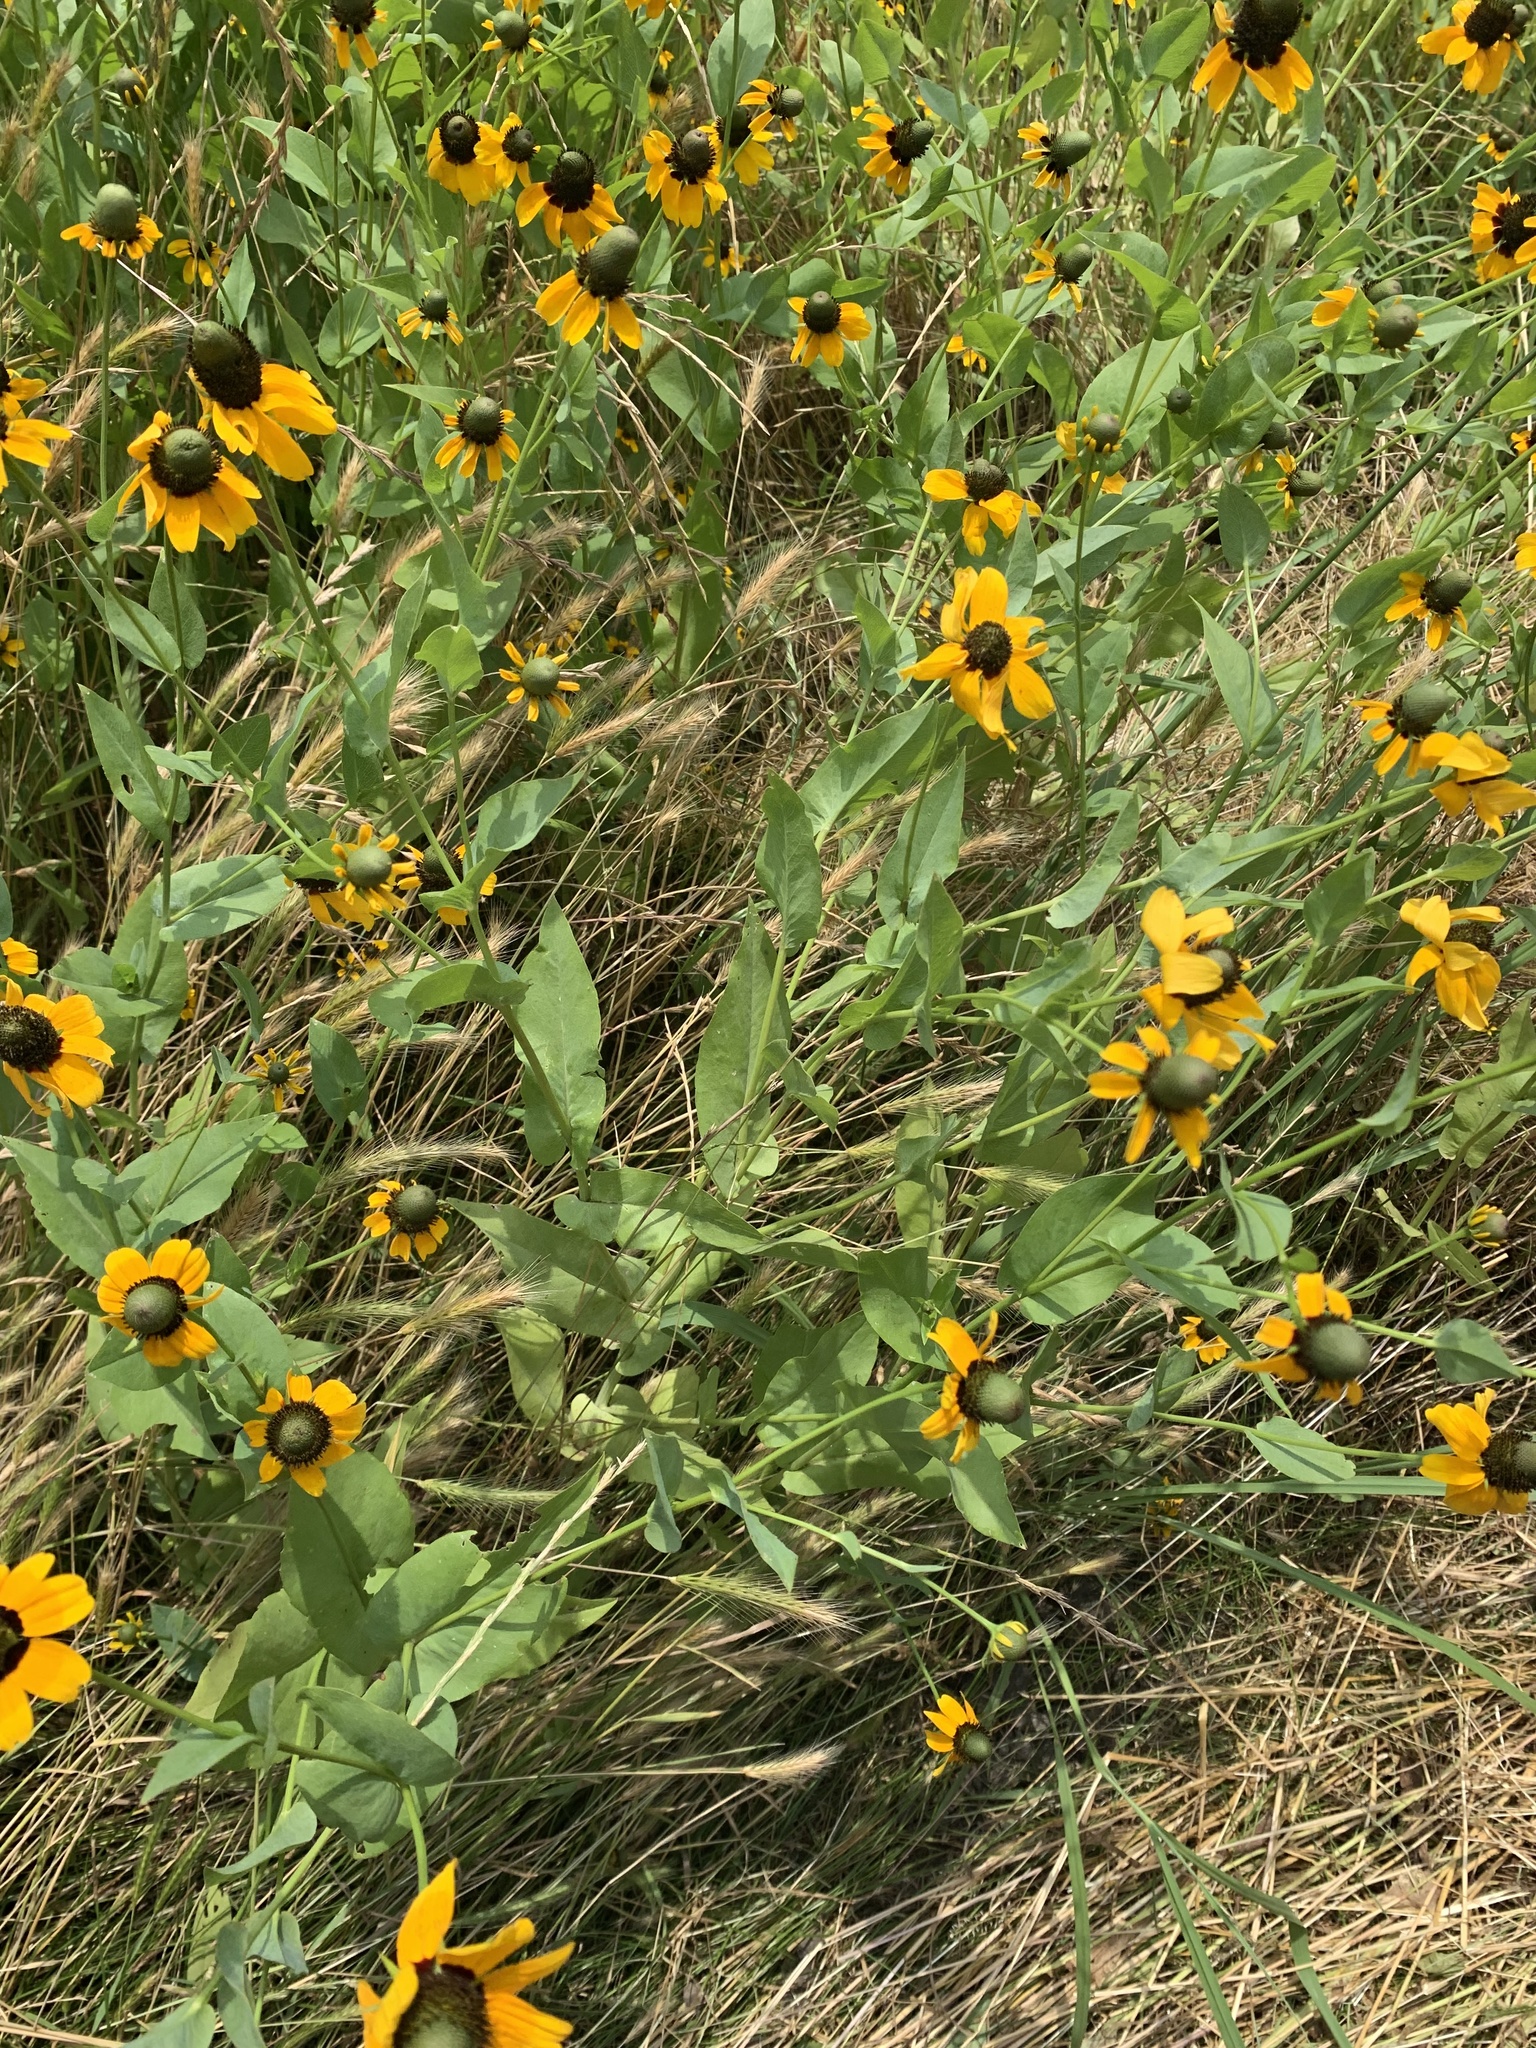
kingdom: Plantae
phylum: Tracheophyta
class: Magnoliopsida
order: Asterales
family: Asteraceae
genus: Rudbeckia
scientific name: Rudbeckia amplexicaulis
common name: Clasping-leaf coneflower
